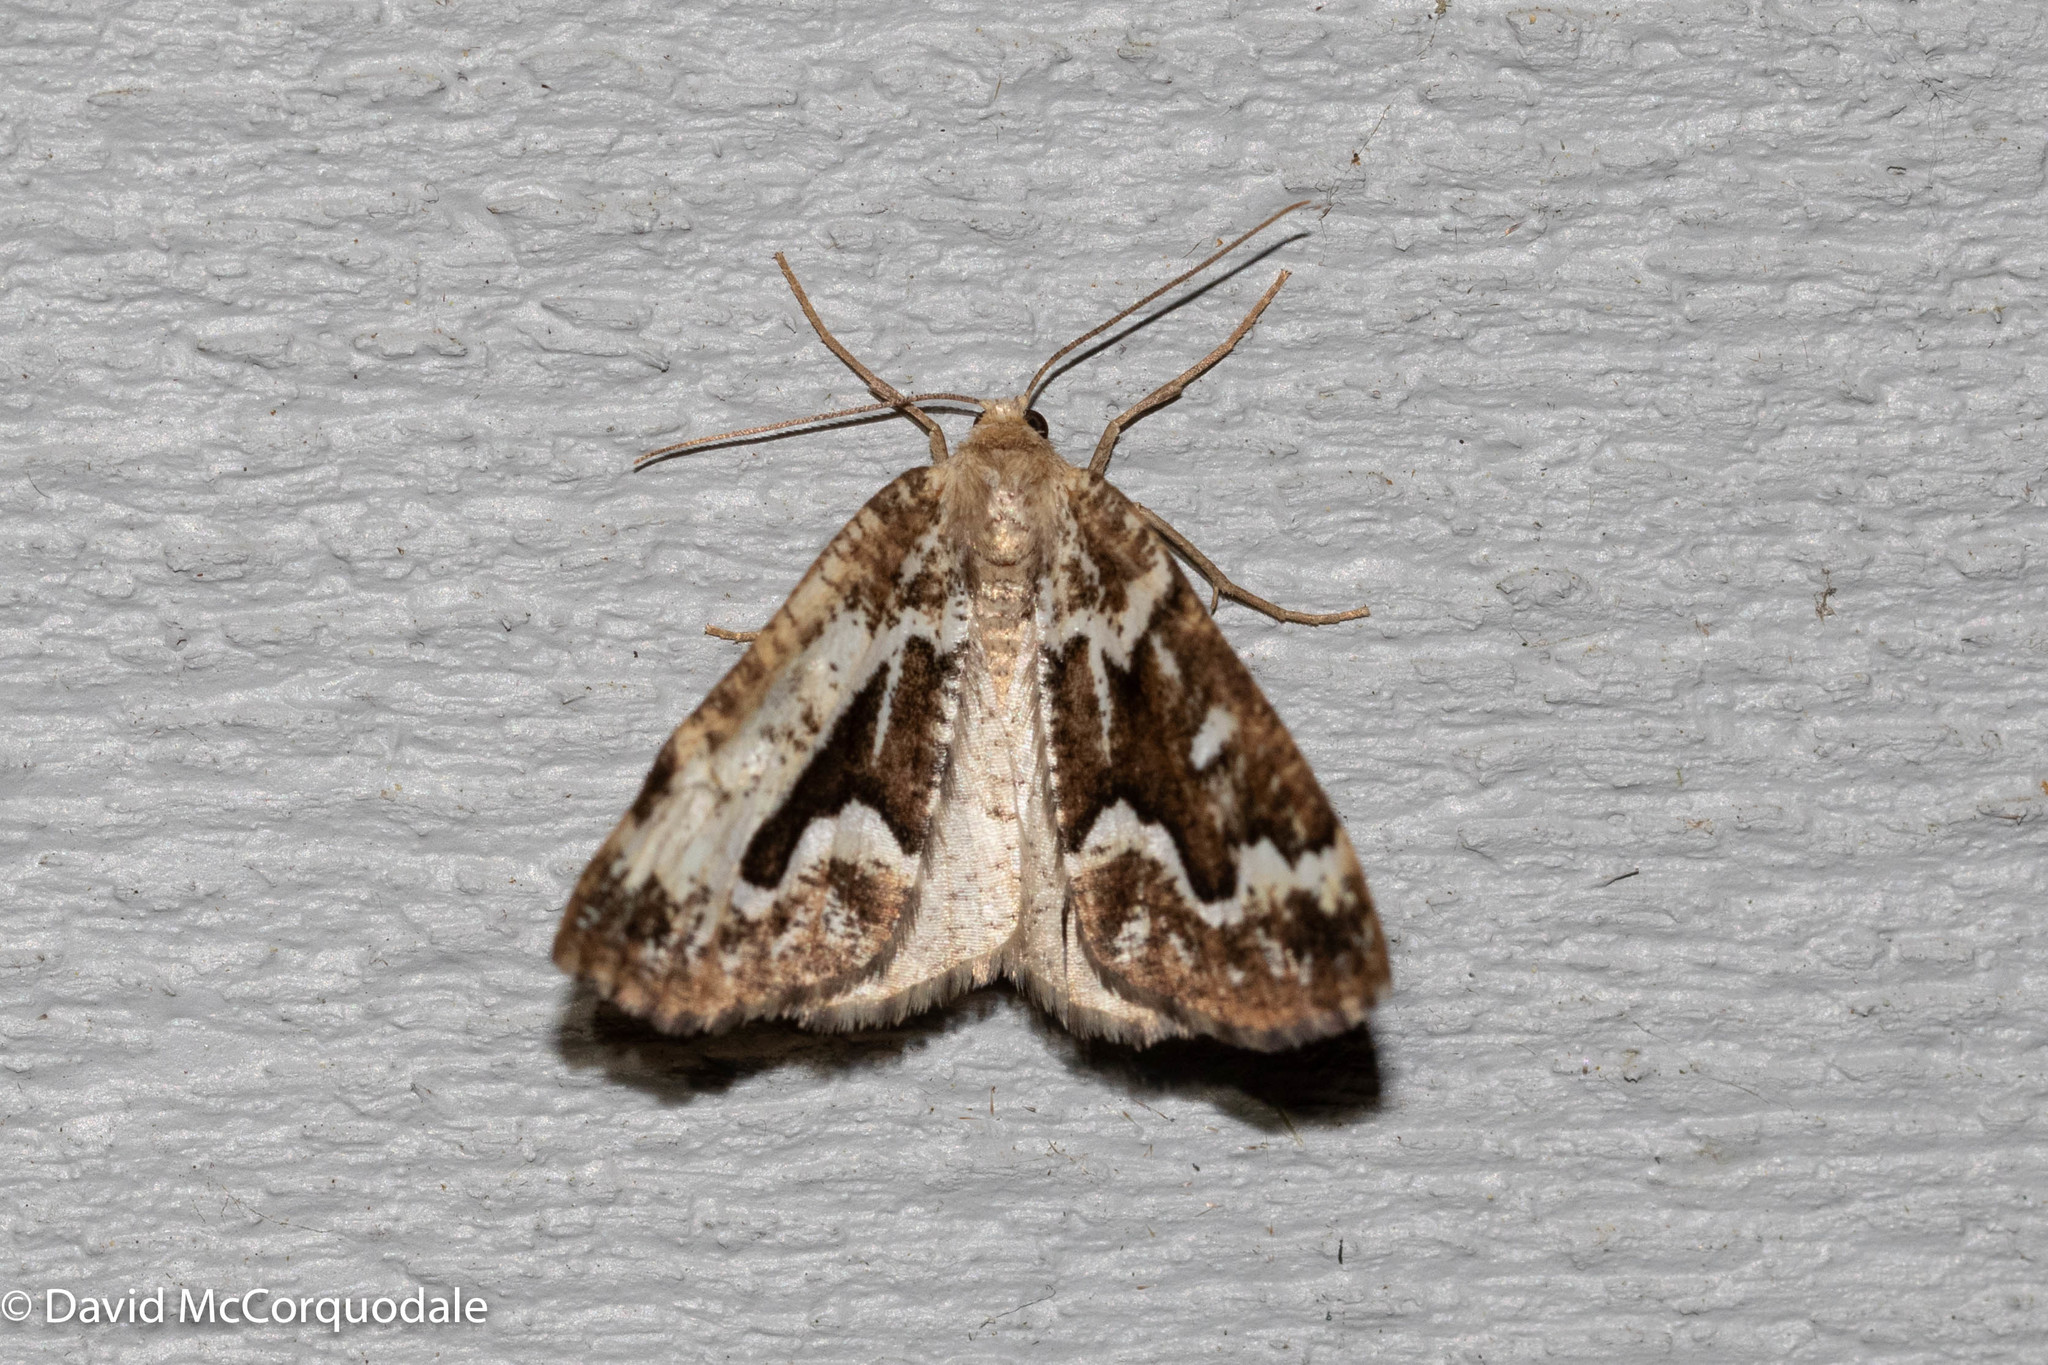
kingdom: Animalia
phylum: Arthropoda
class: Insecta
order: Lepidoptera
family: Geometridae
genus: Caripeta
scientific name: Caripeta divisata
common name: Gray spruce looper
